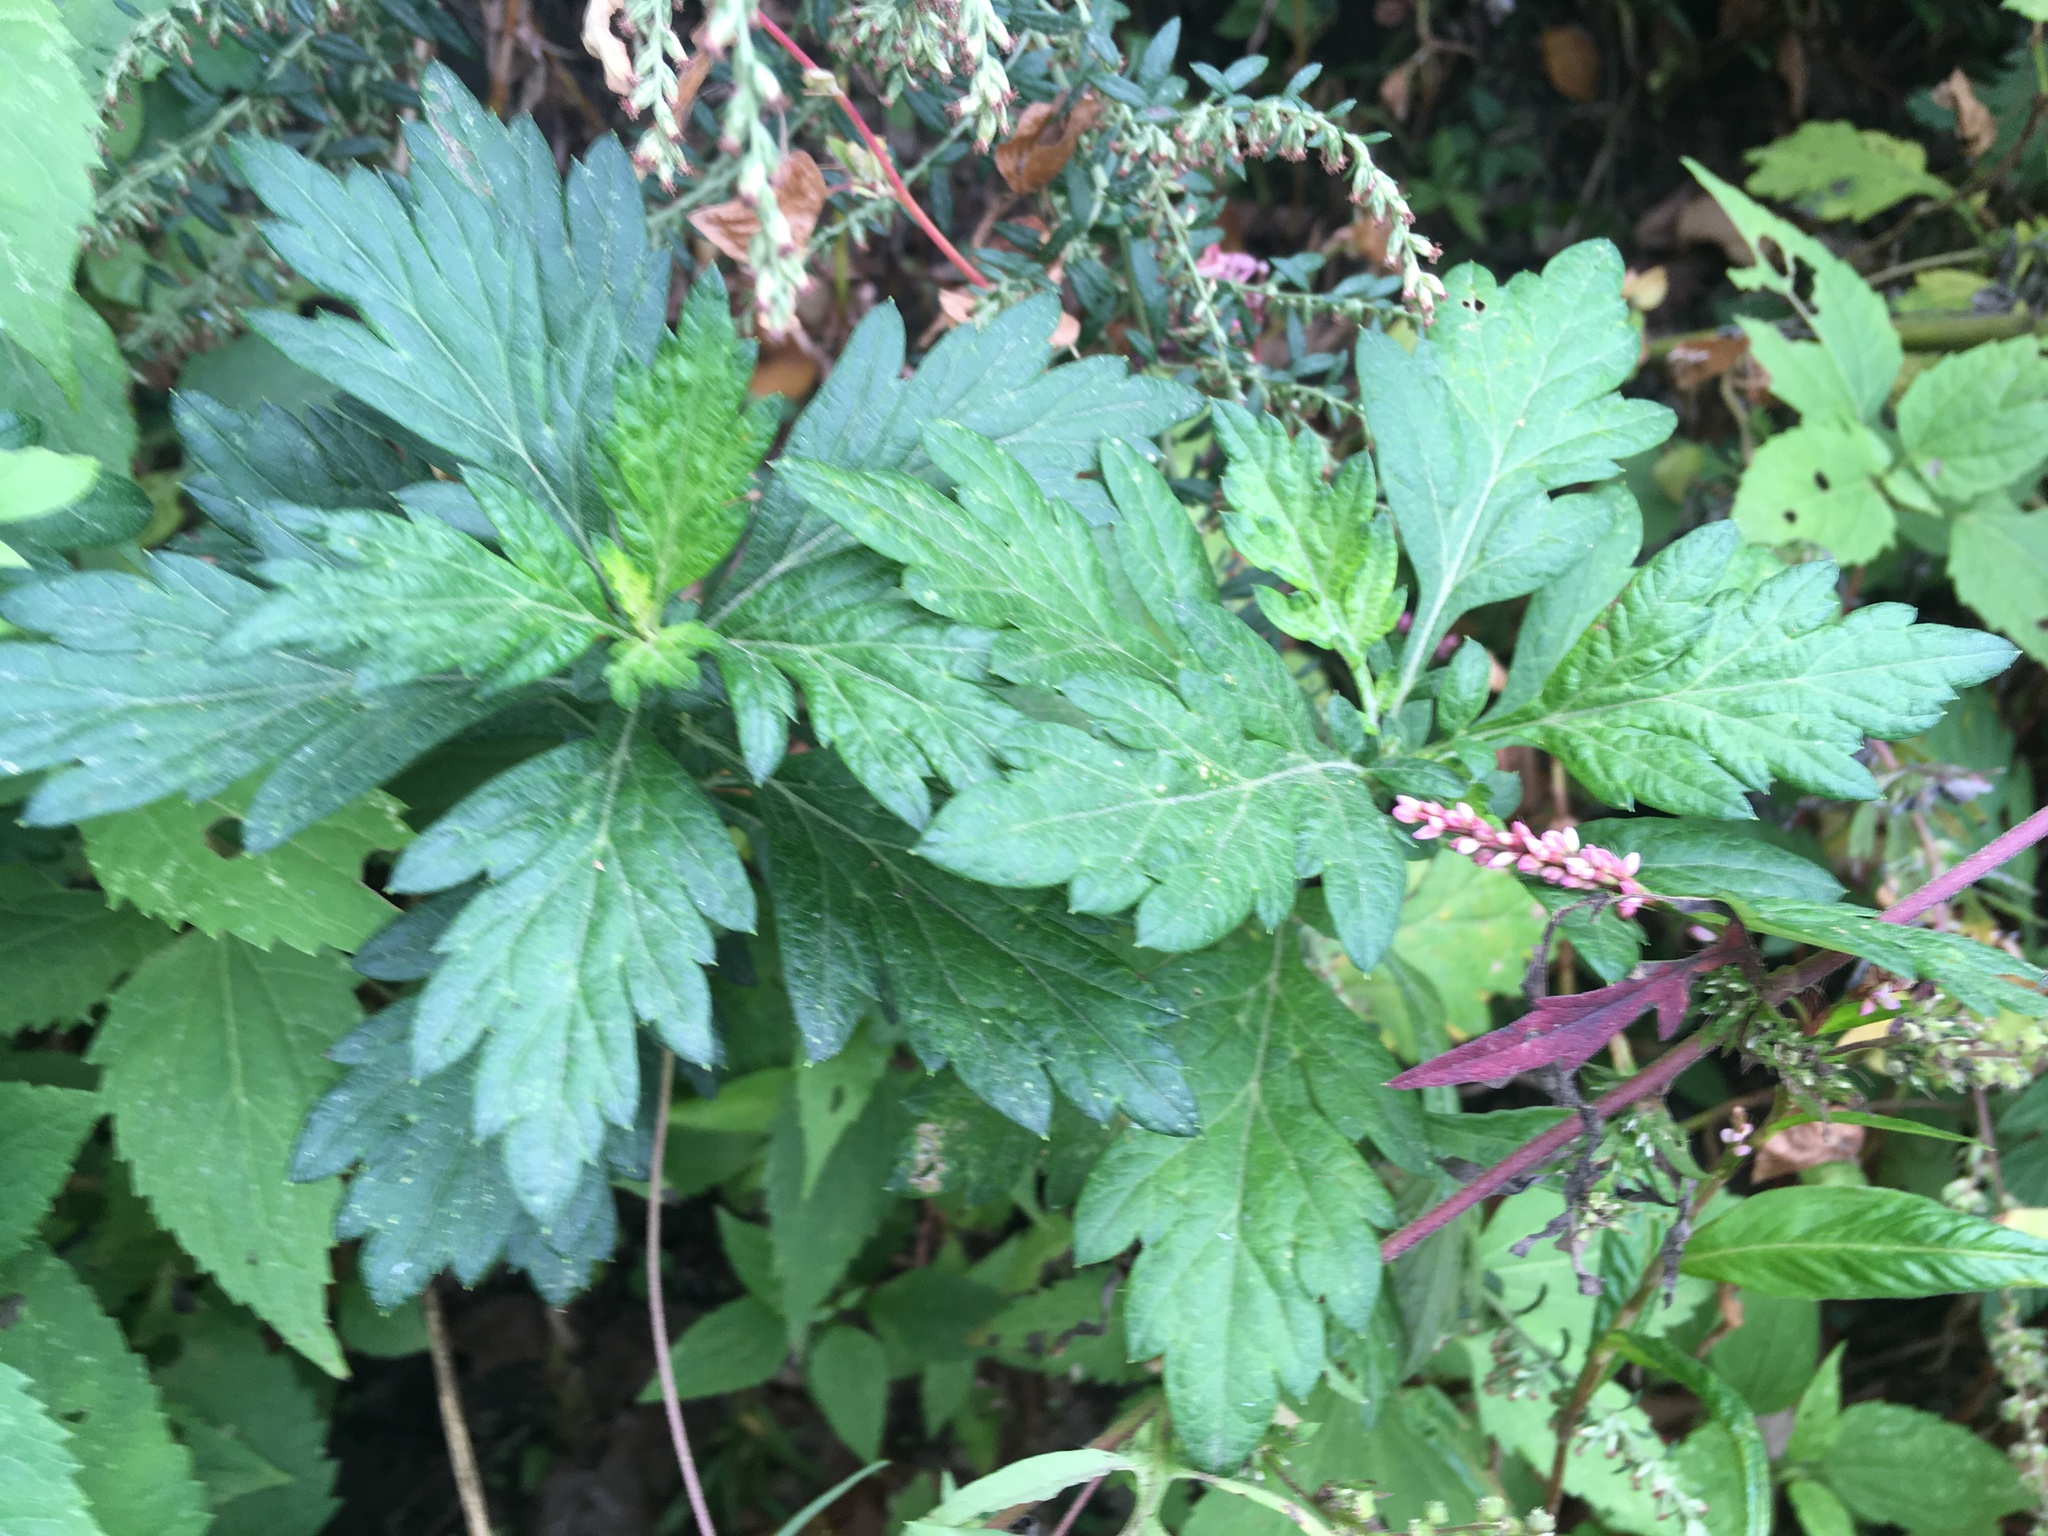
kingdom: Plantae
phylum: Tracheophyta
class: Magnoliopsida
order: Asterales
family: Asteraceae
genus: Artemisia
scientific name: Artemisia vulgaris
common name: Mugwort
